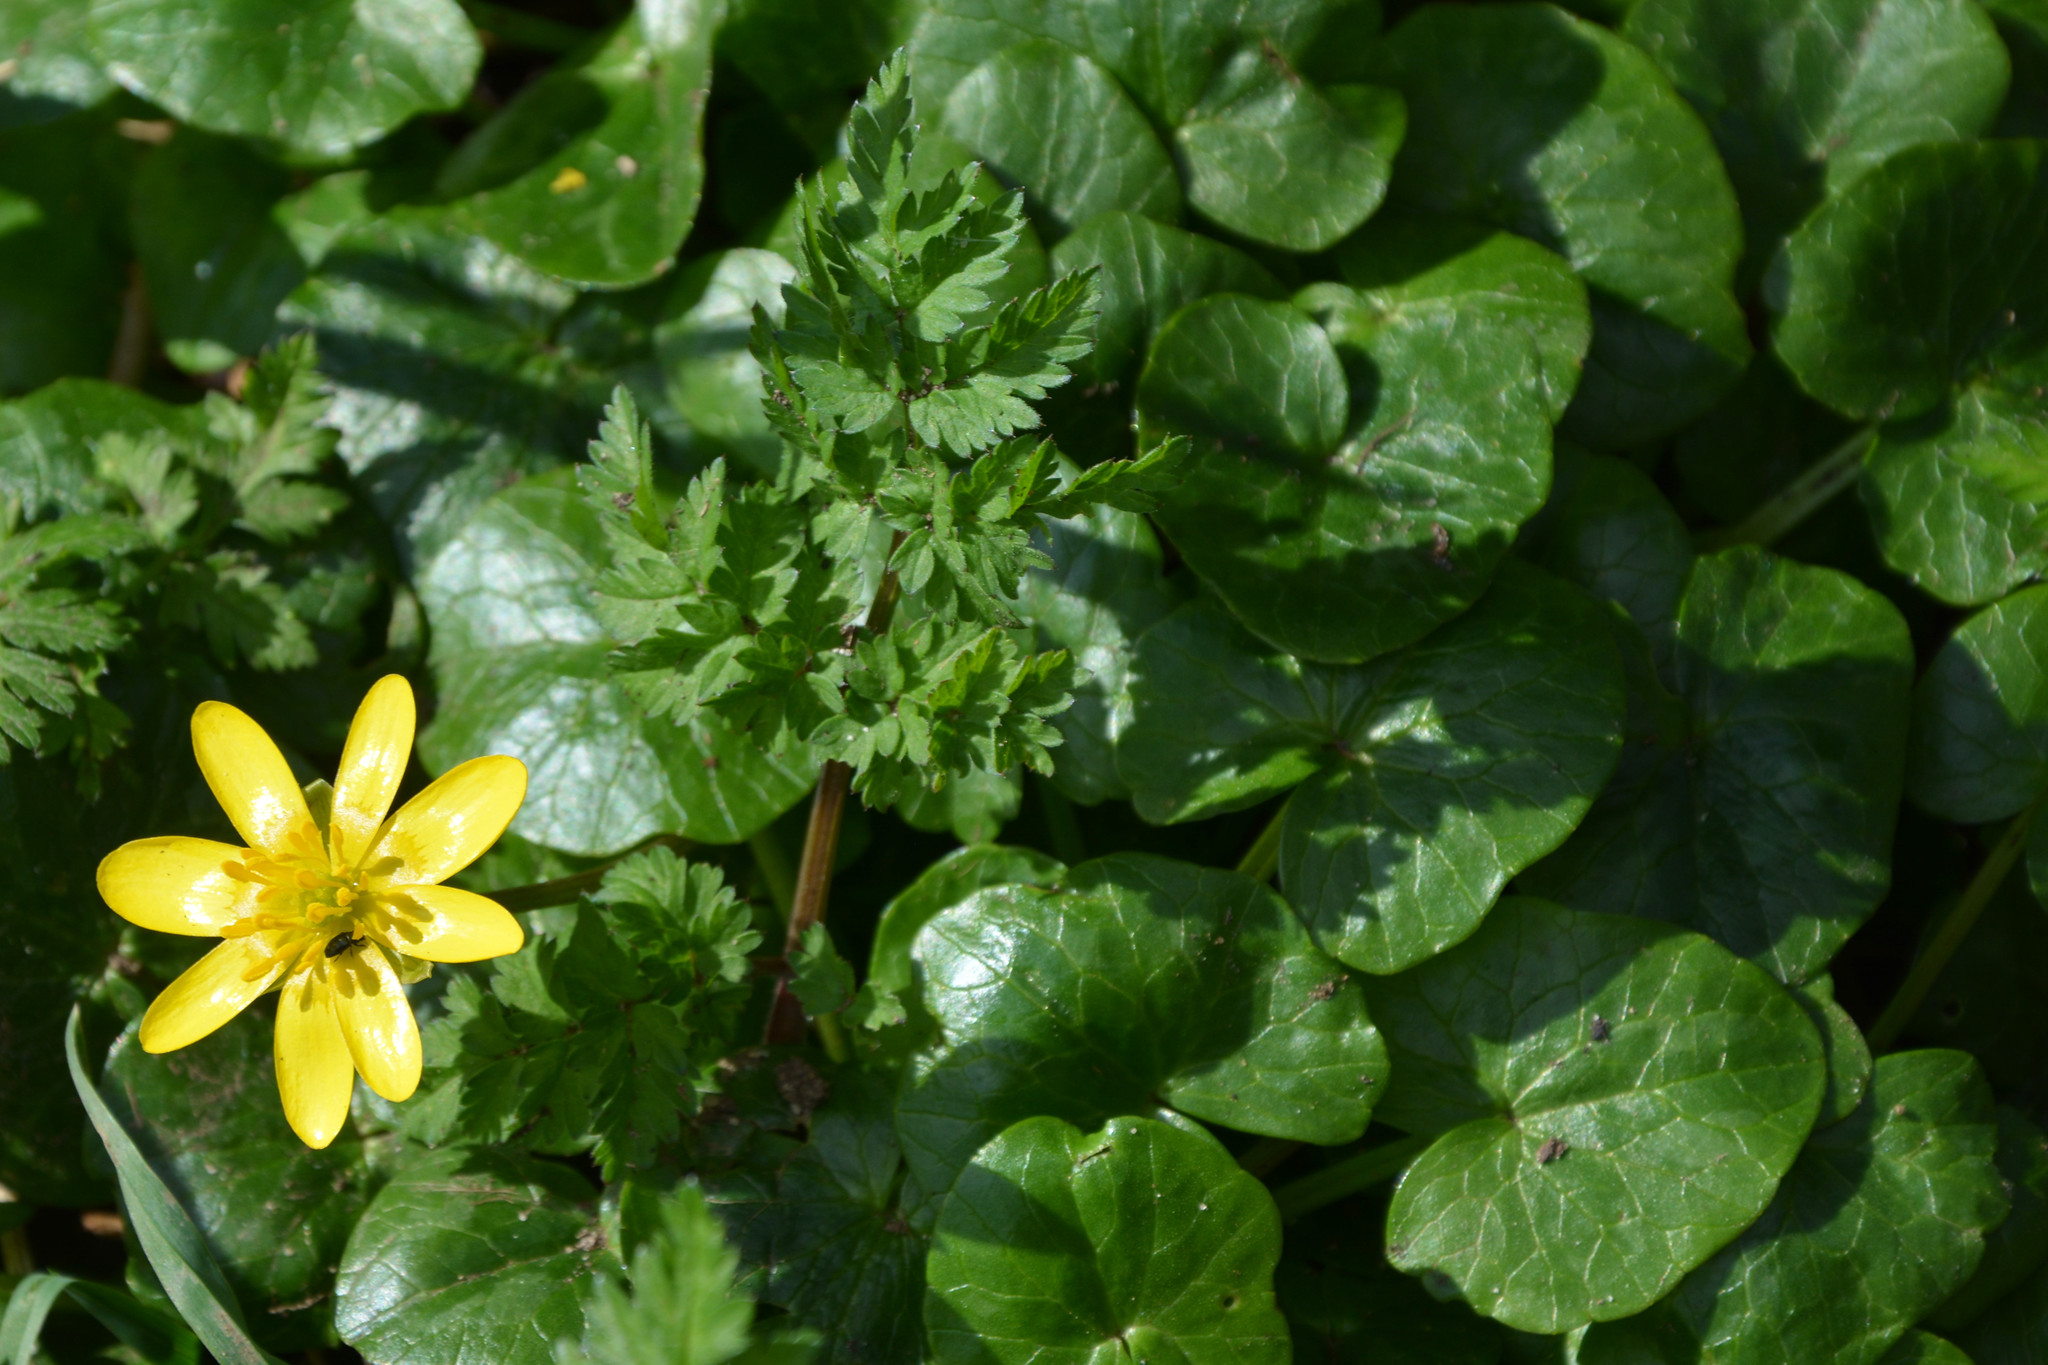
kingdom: Plantae
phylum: Tracheophyta
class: Magnoliopsida
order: Ranunculales
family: Ranunculaceae
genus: Ficaria
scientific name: Ficaria verna
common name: Lesser celandine
